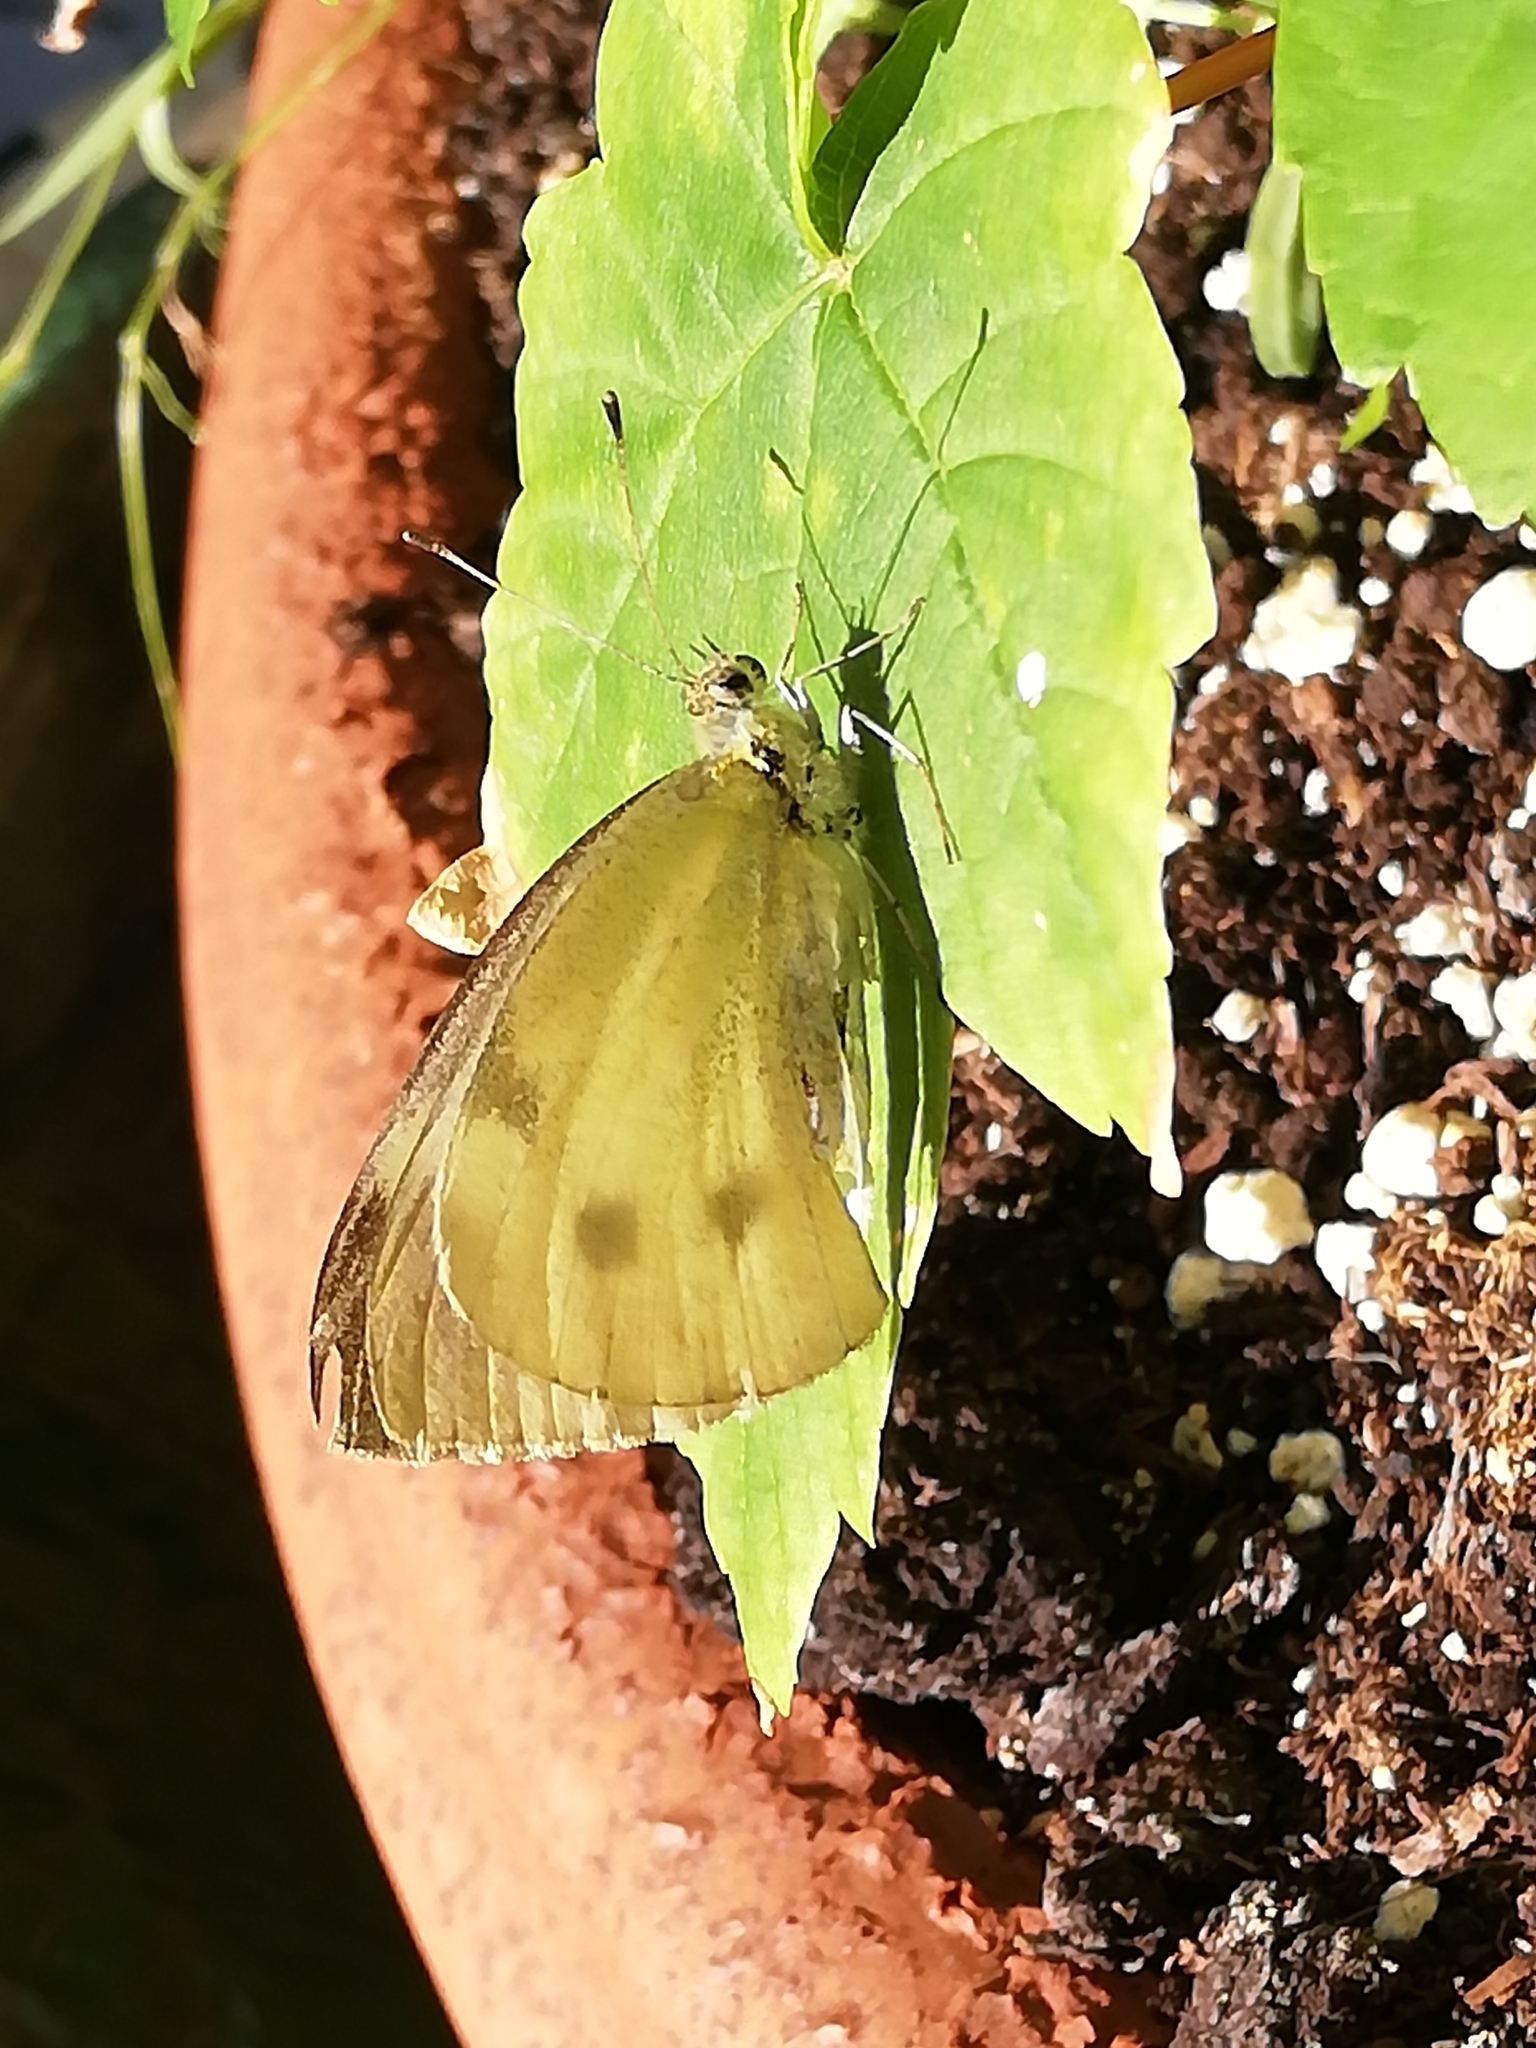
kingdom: Animalia
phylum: Arthropoda
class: Insecta
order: Lepidoptera
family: Pieridae
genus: Pieris
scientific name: Pieris rapae
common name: Small white
